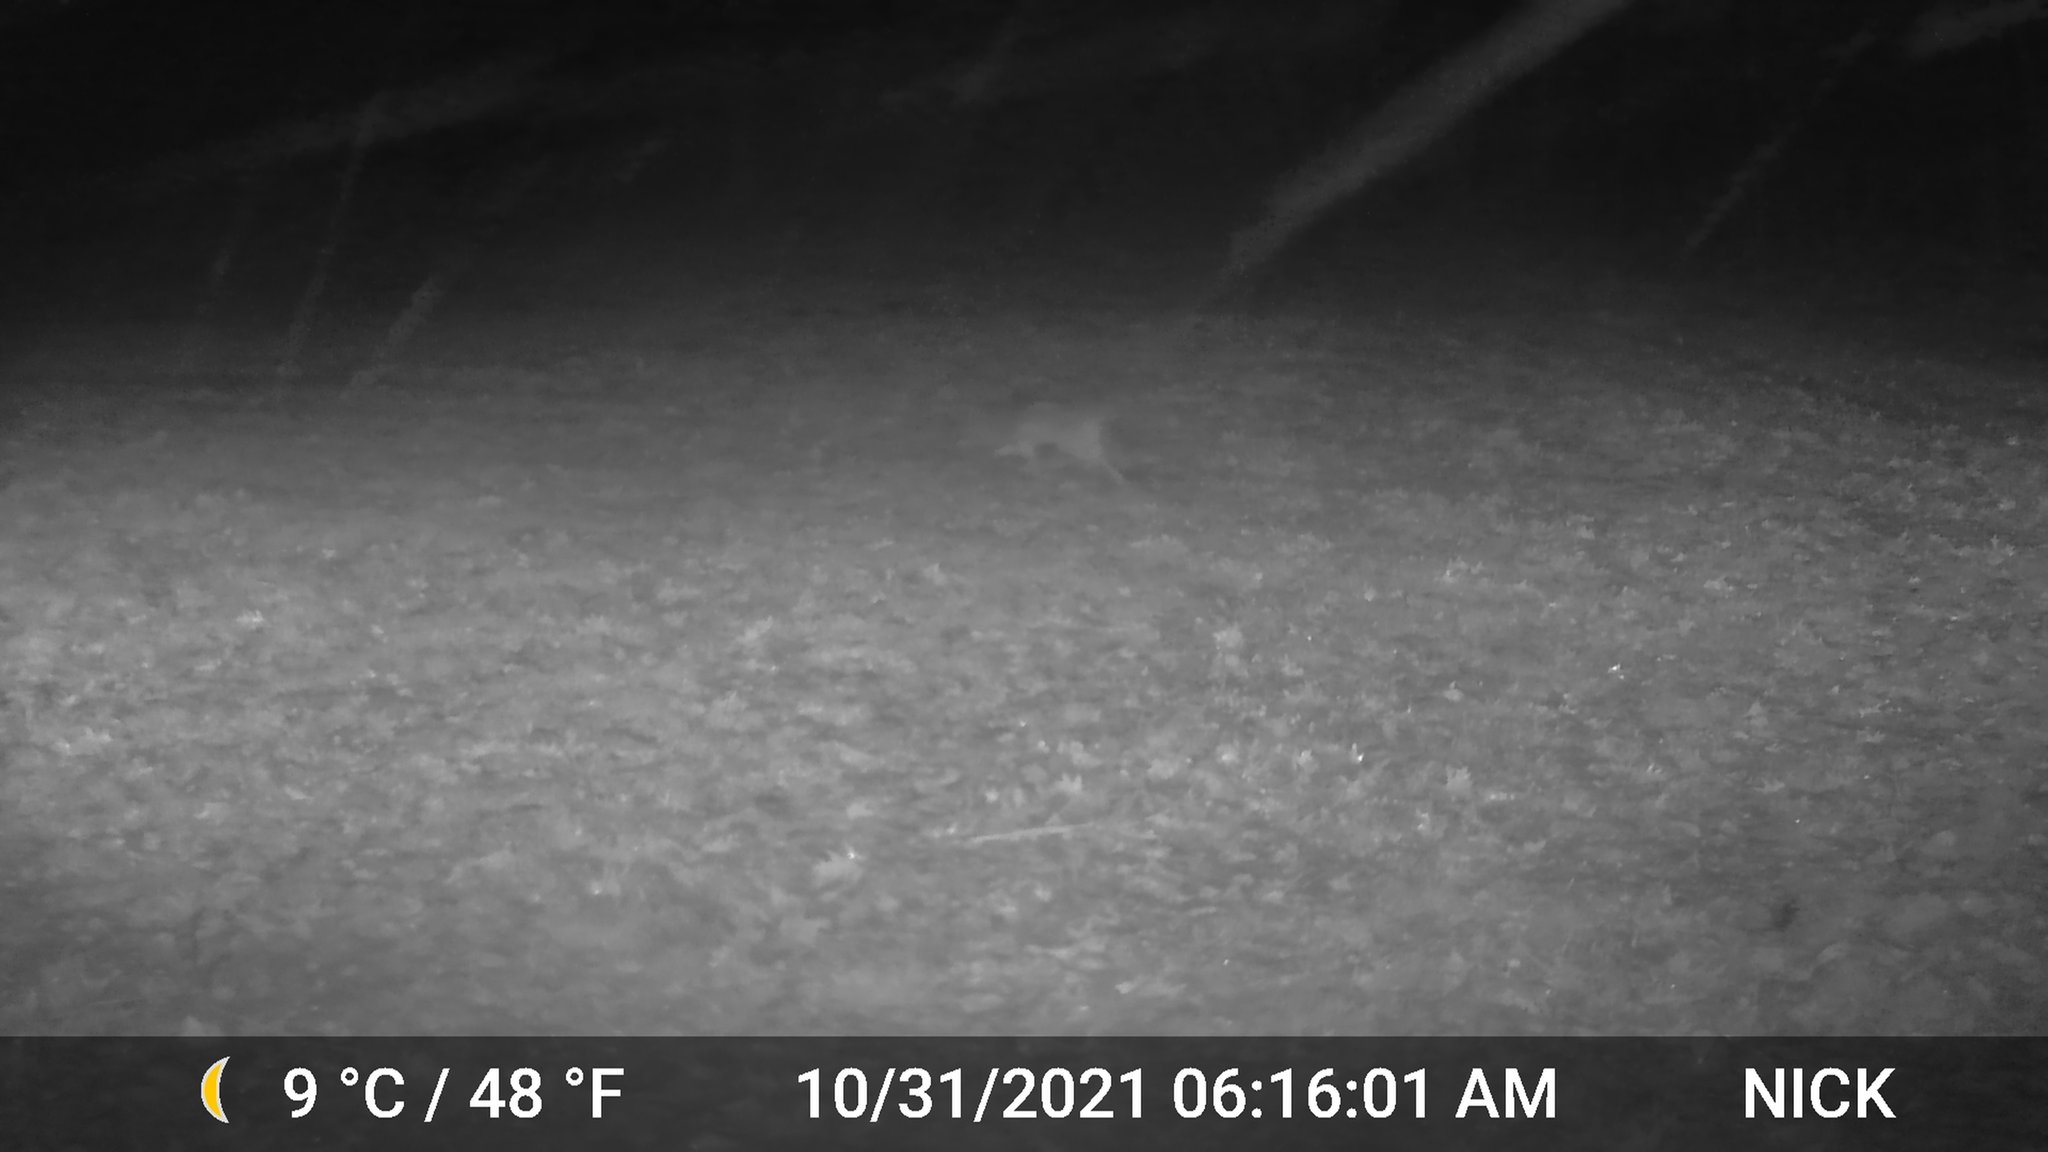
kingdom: Animalia
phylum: Chordata
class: Mammalia
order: Carnivora
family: Canidae
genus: Canis
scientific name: Canis latrans
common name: Coyote
